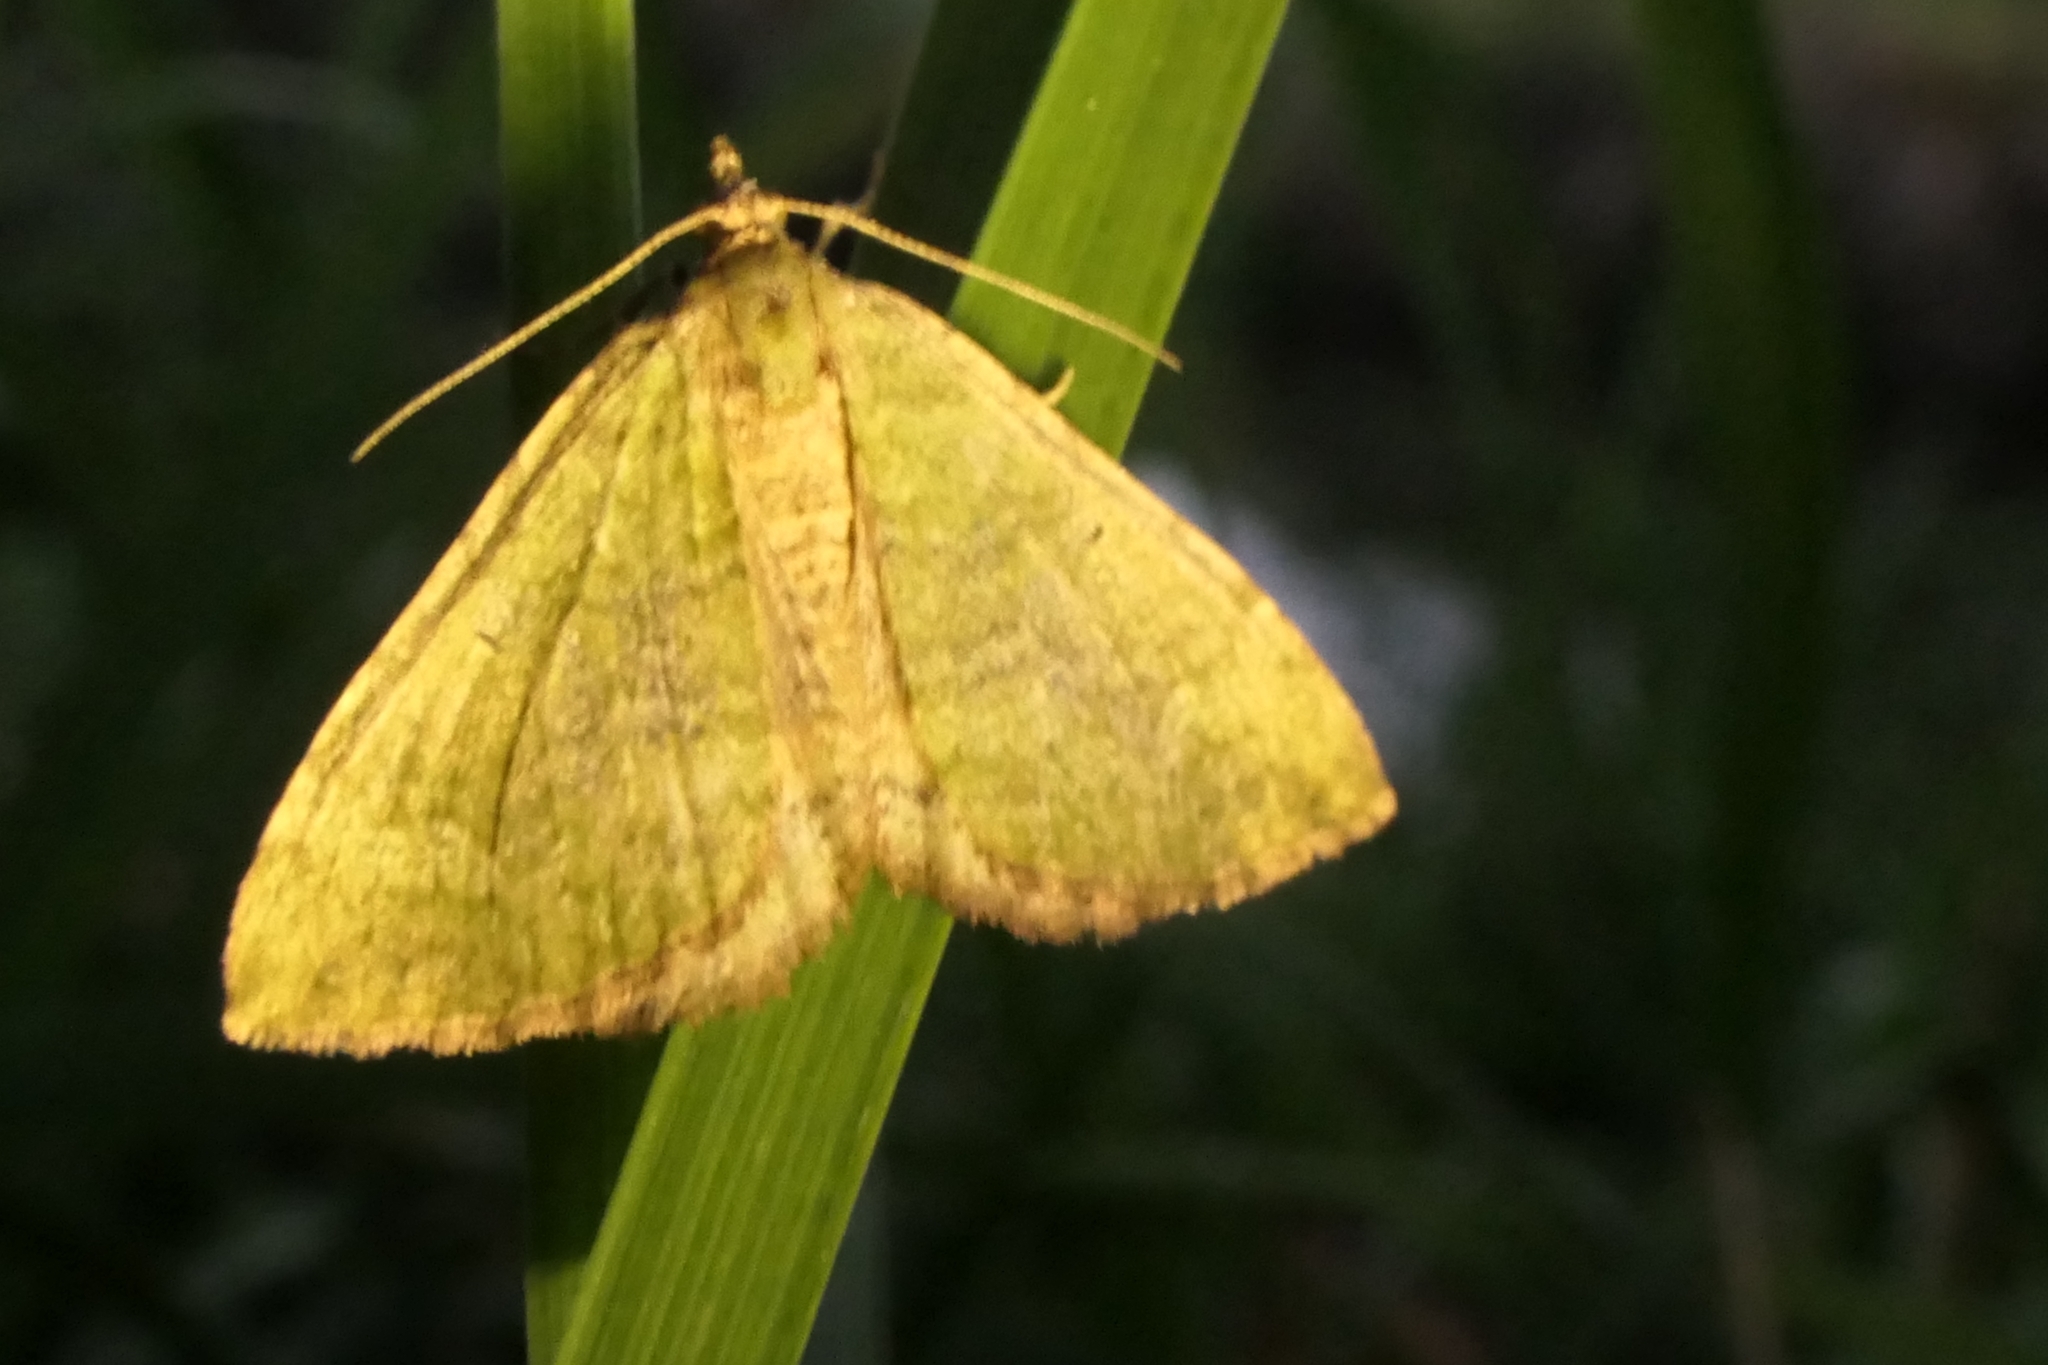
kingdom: Animalia
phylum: Arthropoda
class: Insecta
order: Lepidoptera
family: Geometridae
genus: Epyaxa
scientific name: Epyaxa rosearia
